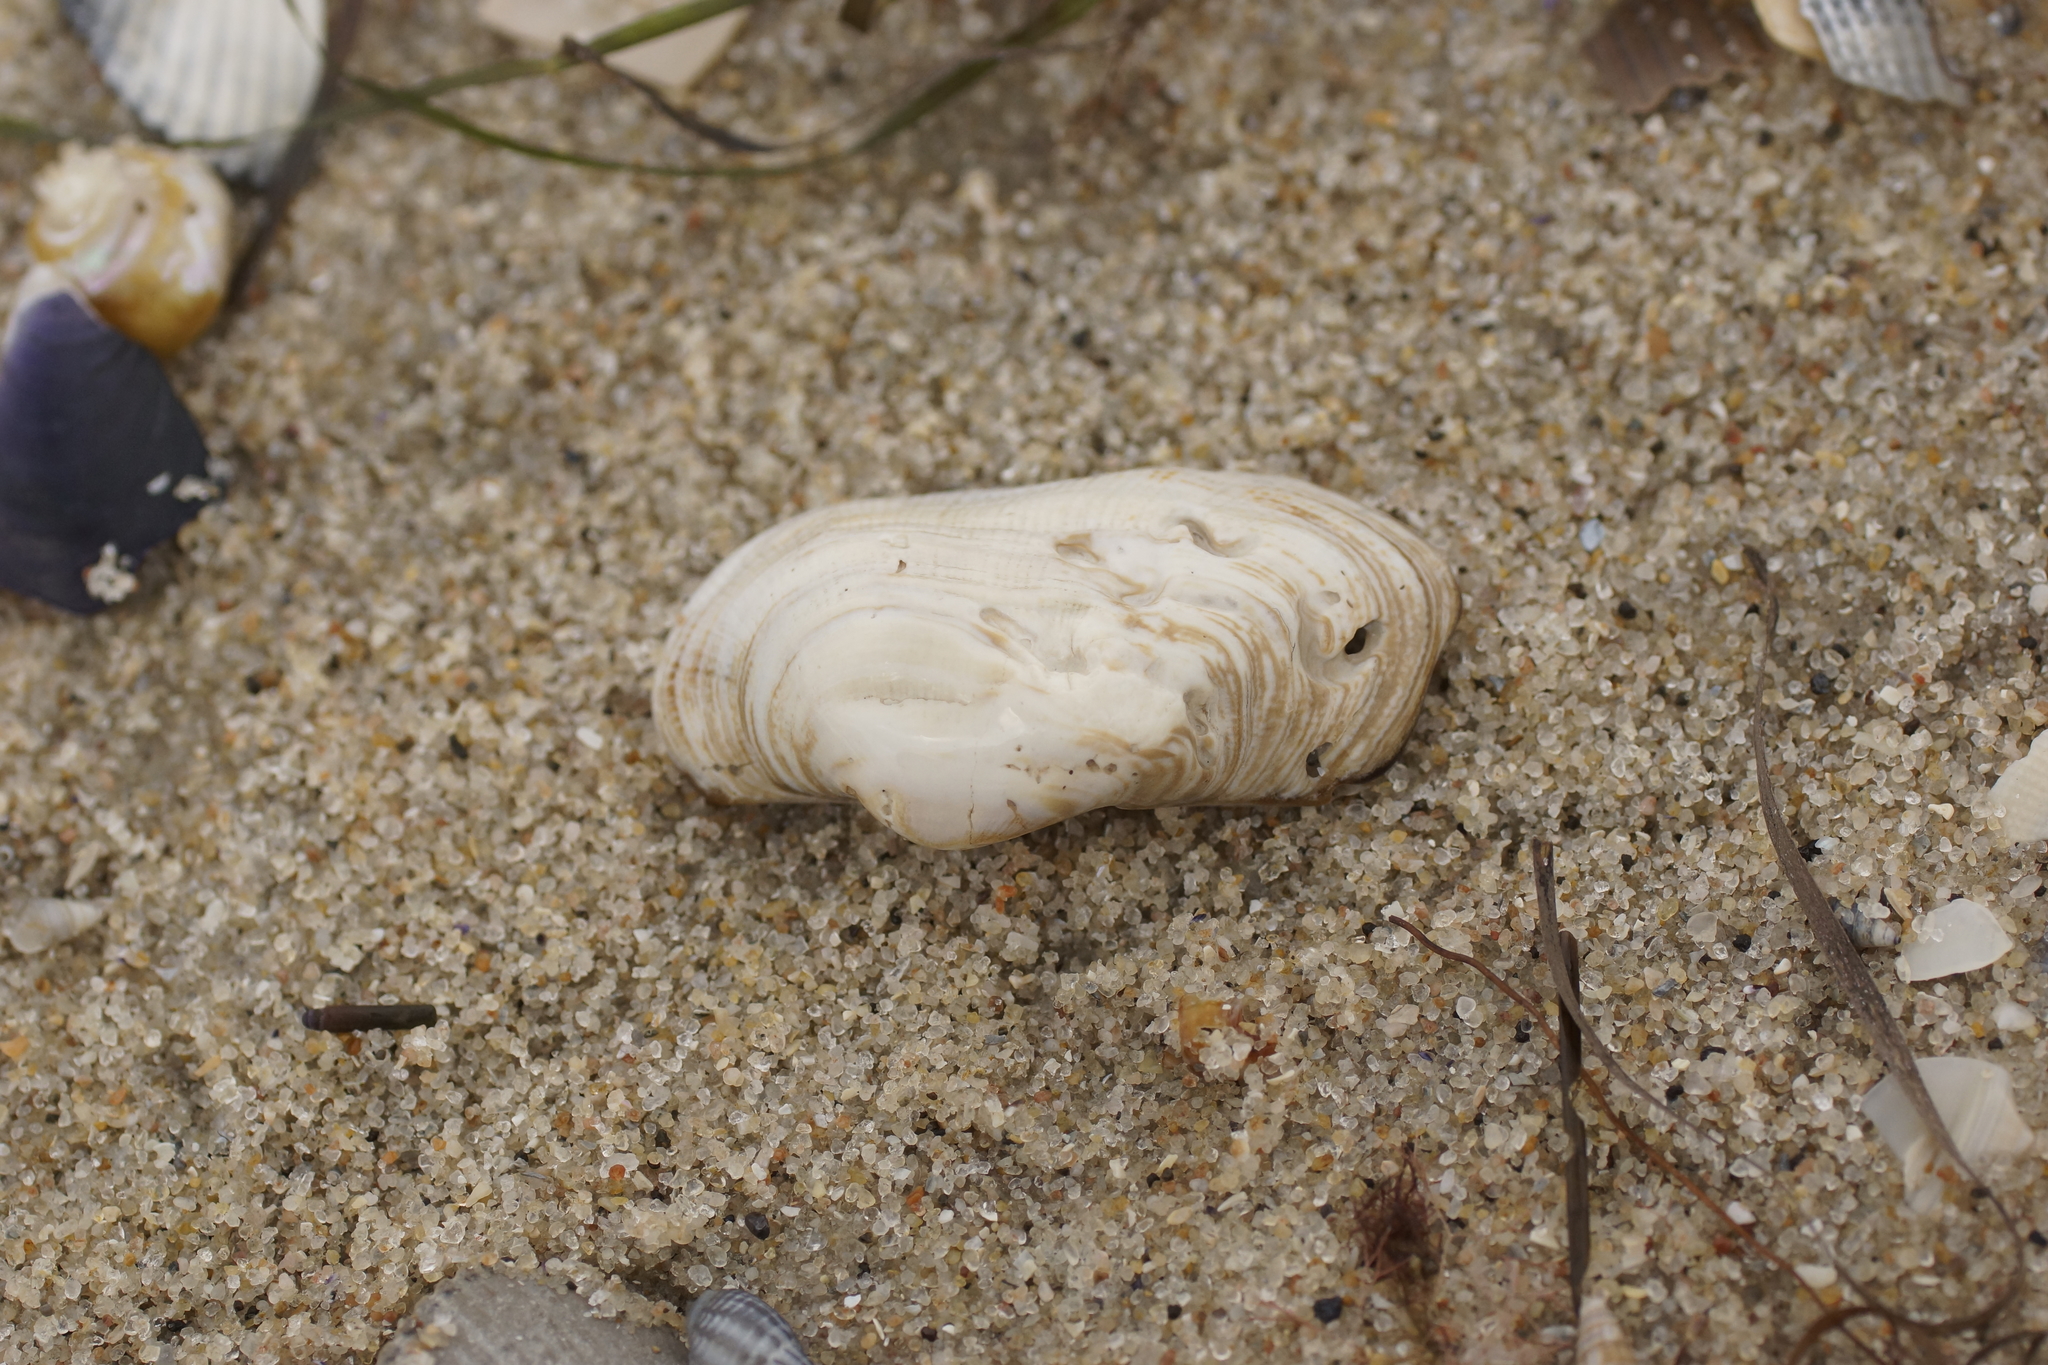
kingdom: Animalia
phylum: Mollusca
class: Bivalvia
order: Arcida
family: Arcidae
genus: Barbatia
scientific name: Barbatia pistachia
